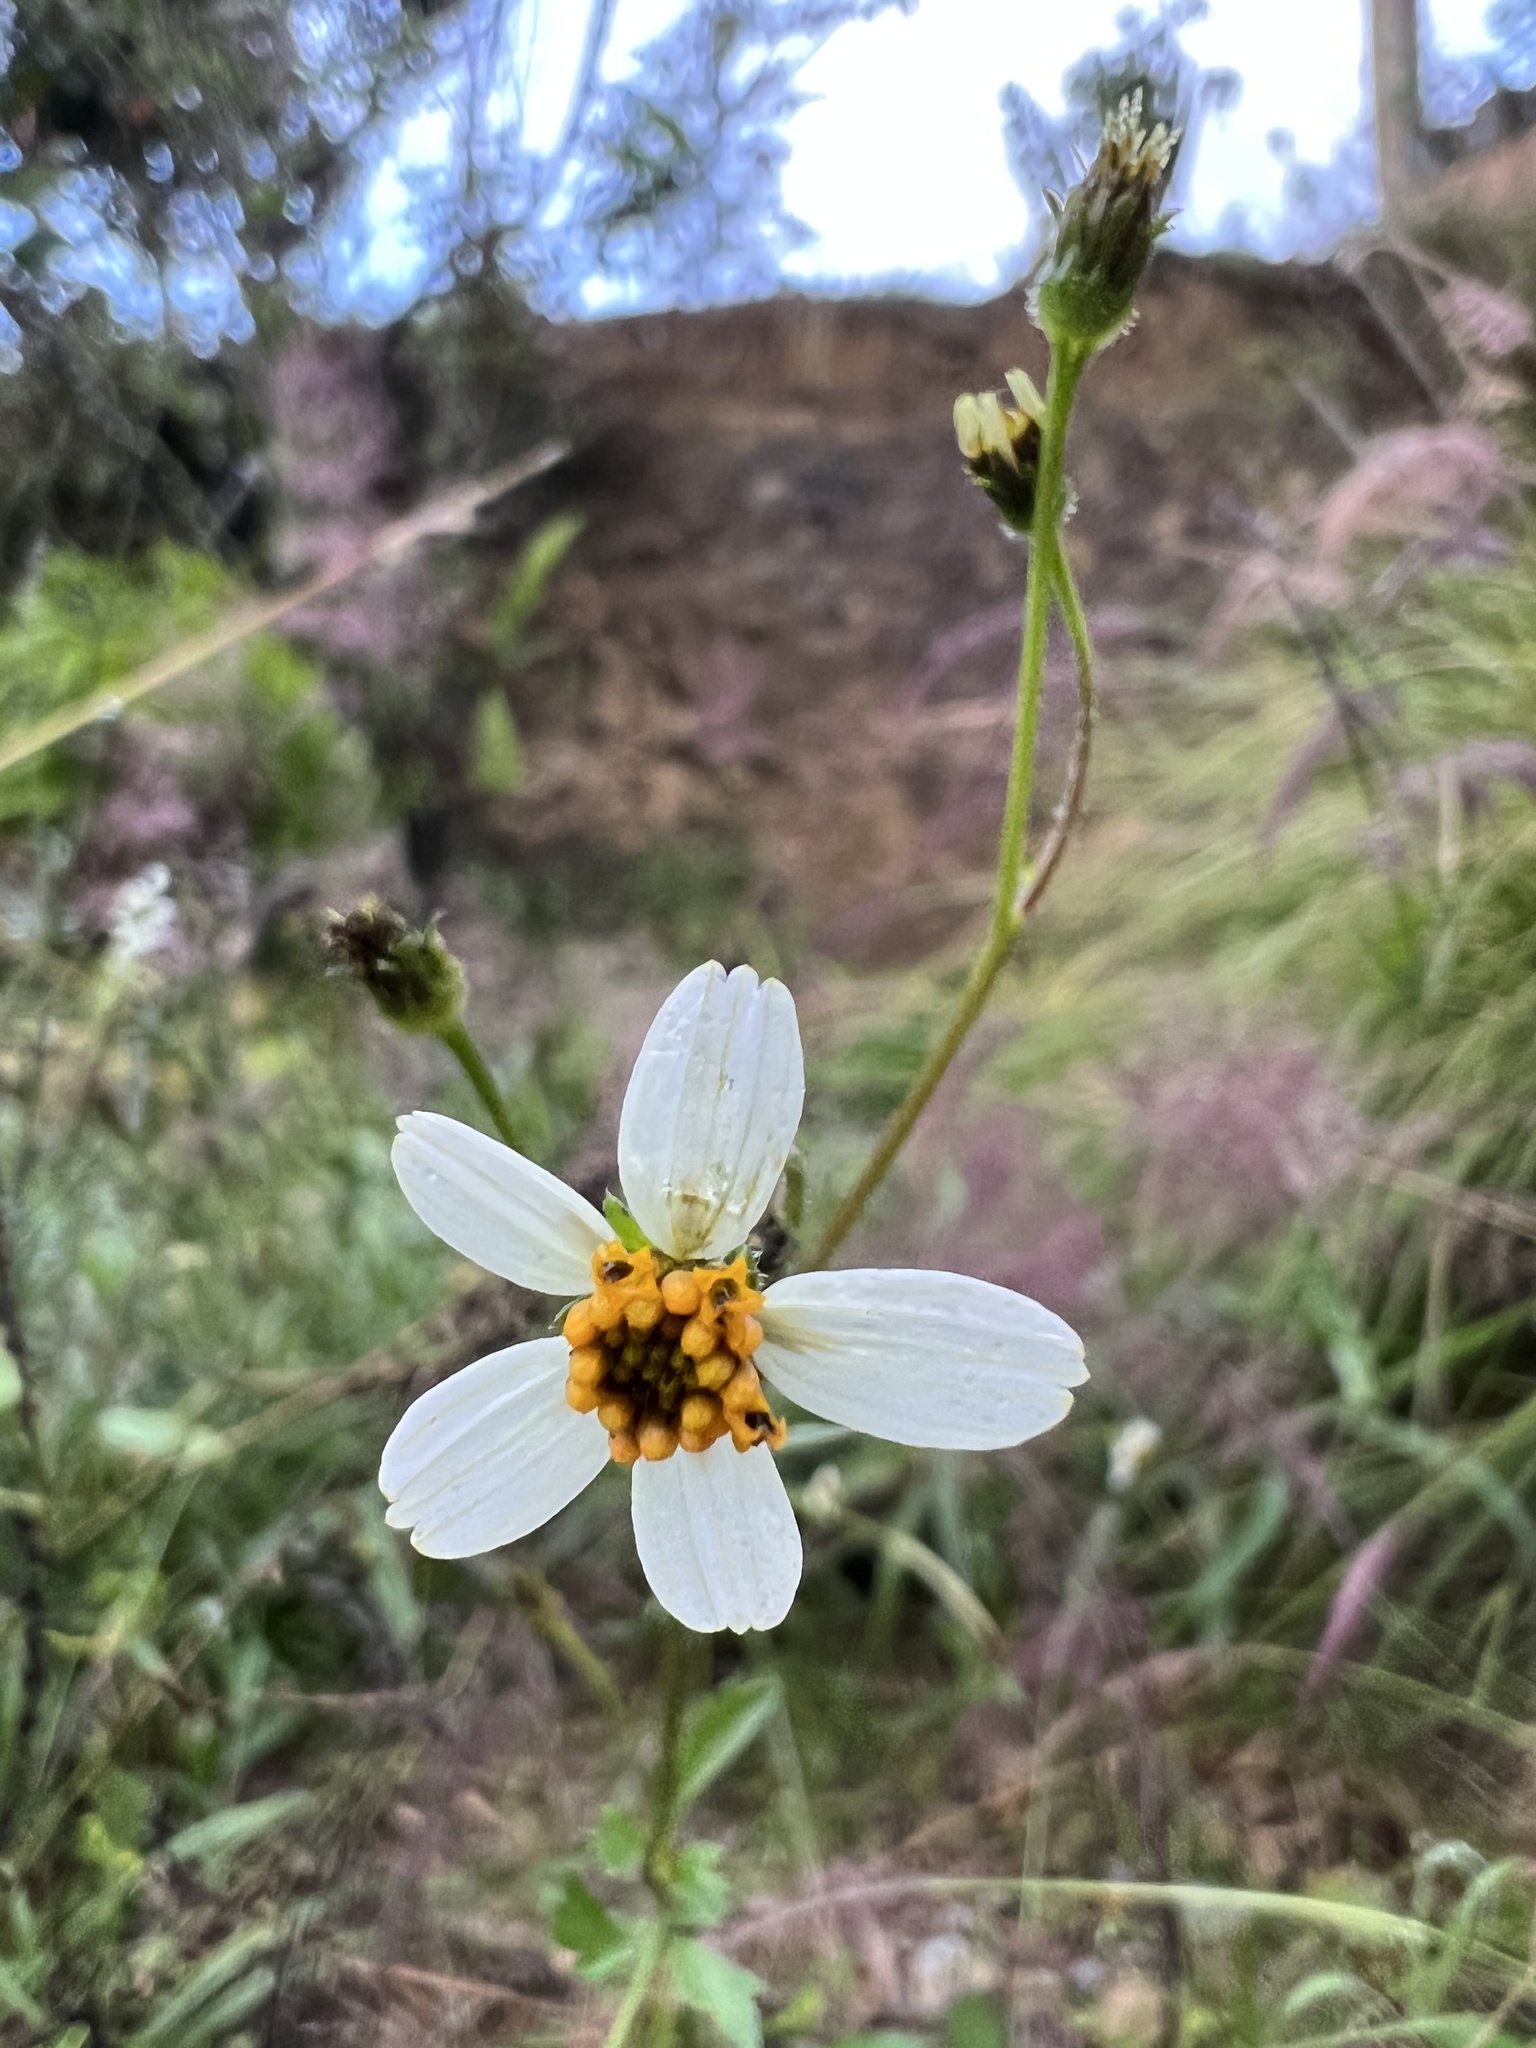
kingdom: Plantae
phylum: Tracheophyta
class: Magnoliopsida
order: Asterales
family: Asteraceae
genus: Bidens
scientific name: Bidens pilosa
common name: Black-jack
